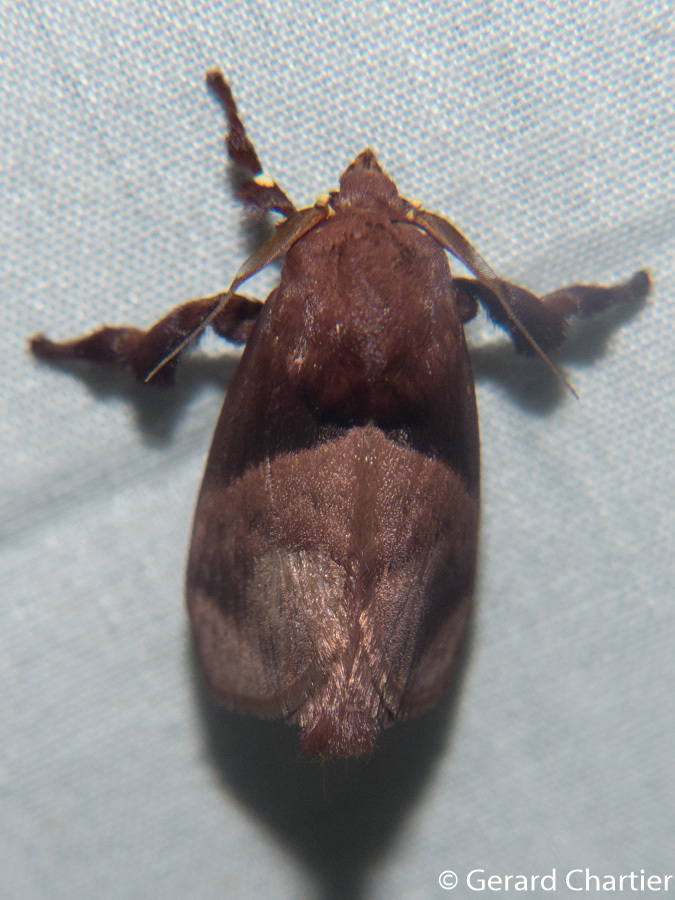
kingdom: Animalia
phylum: Arthropoda
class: Insecta
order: Lepidoptera
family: Limacodidae
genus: Birthamoides
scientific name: Birthamoides junctura
